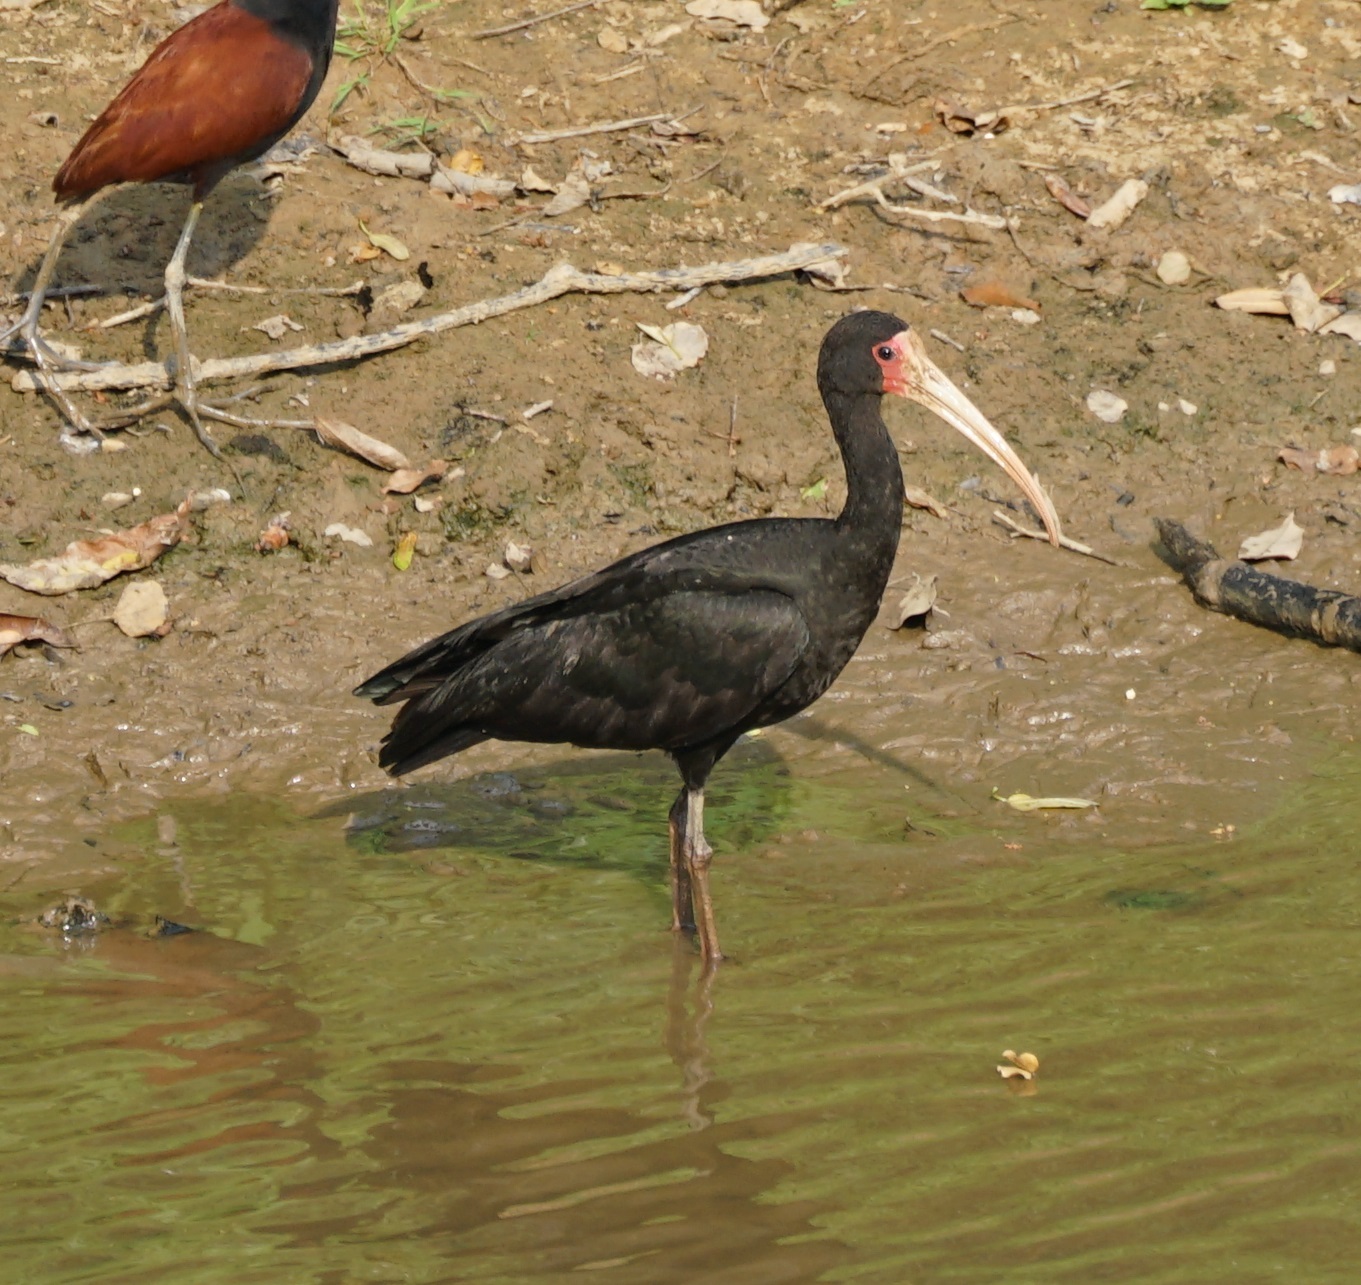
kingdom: Animalia
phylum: Chordata
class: Aves
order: Pelecaniformes
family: Threskiornithidae
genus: Phimosus
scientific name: Phimosus infuscatus
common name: Bare-faced ibis
